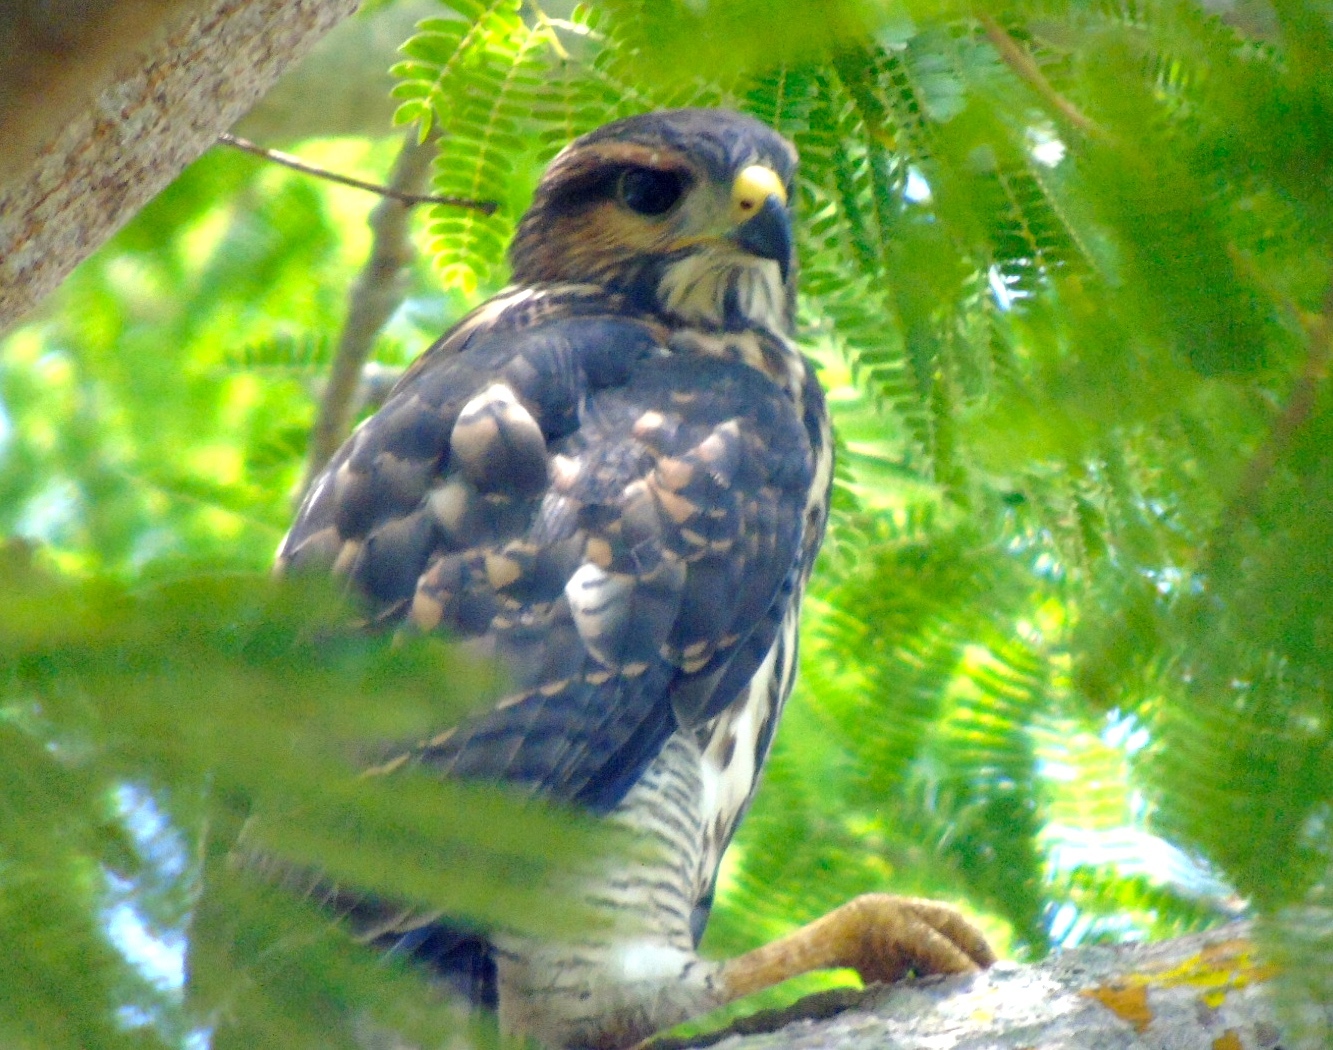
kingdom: Animalia
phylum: Chordata
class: Aves
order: Accipitriformes
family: Accipitridae
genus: Buteo
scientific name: Buteo nitidus
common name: Grey-lined hawk
